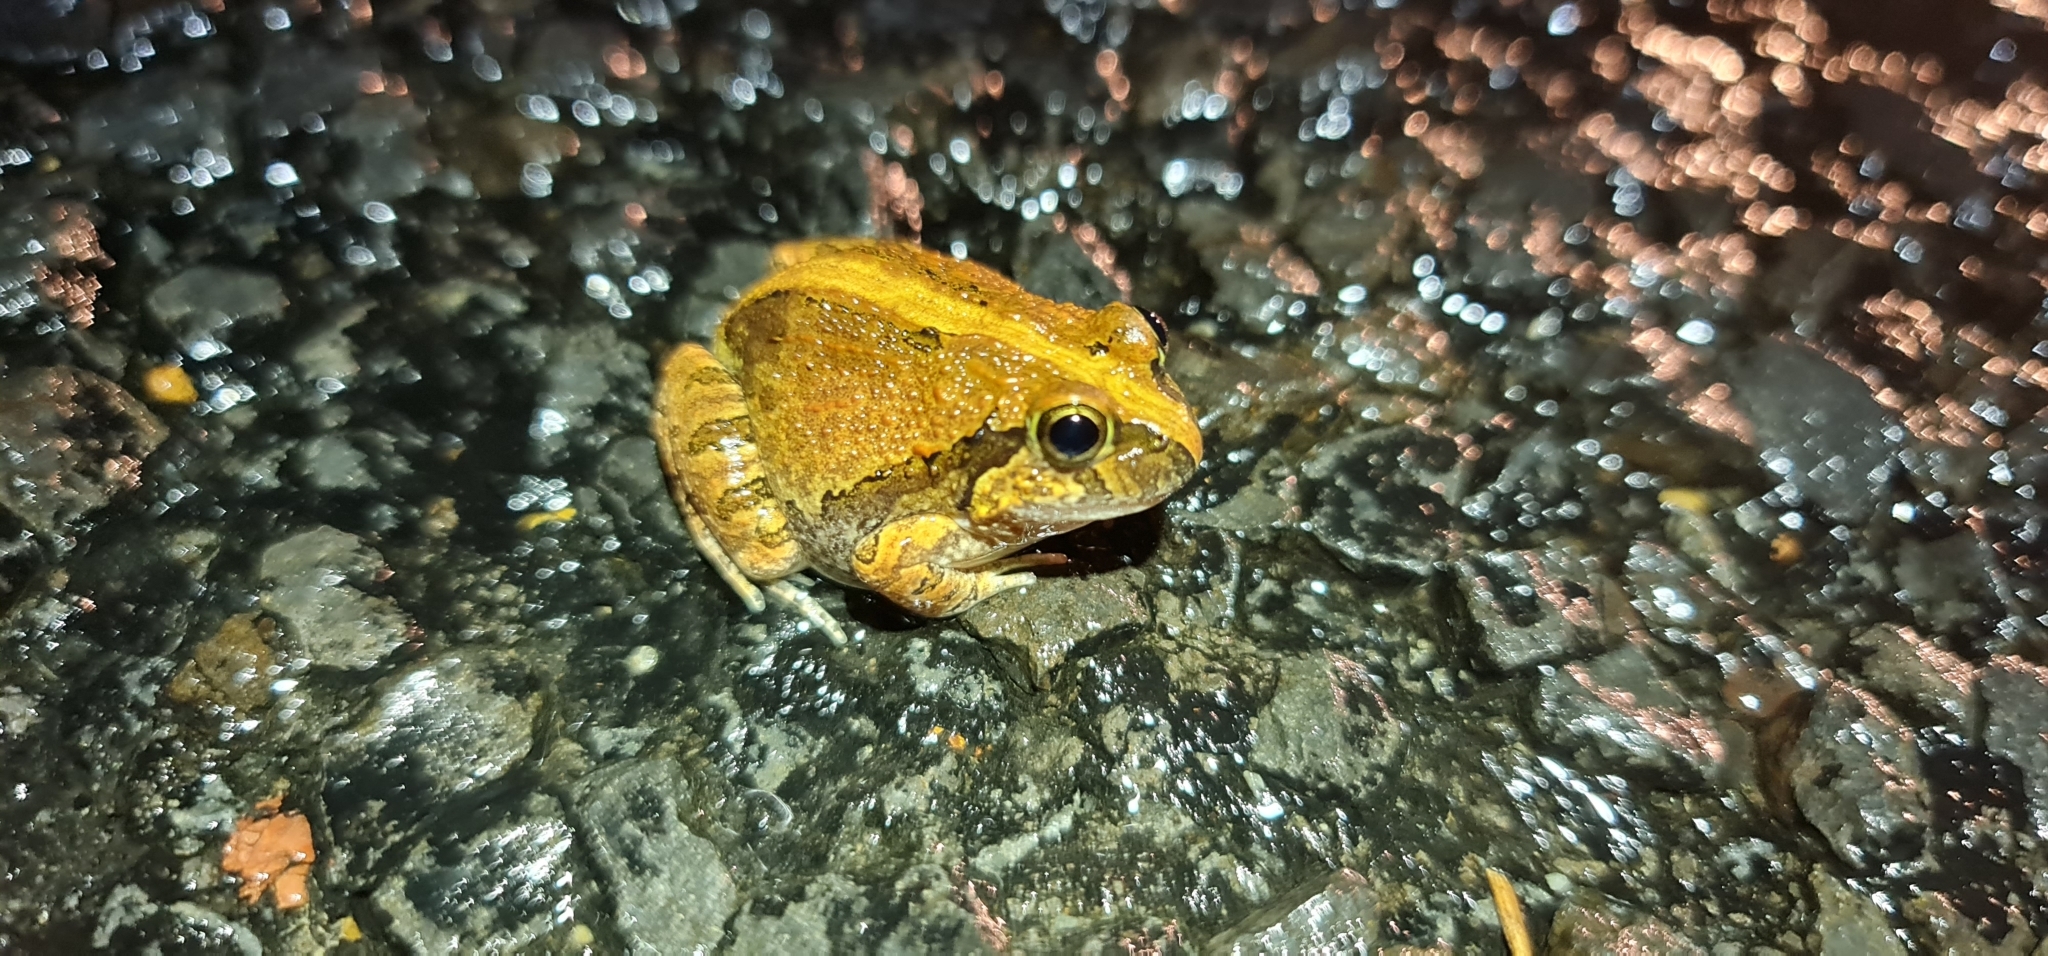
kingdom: Animalia
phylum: Chordata
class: Amphibia
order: Anura
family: Limnodynastidae
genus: Platyplectrum
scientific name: Platyplectrum ornatum
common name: Ornate burrowing frog
